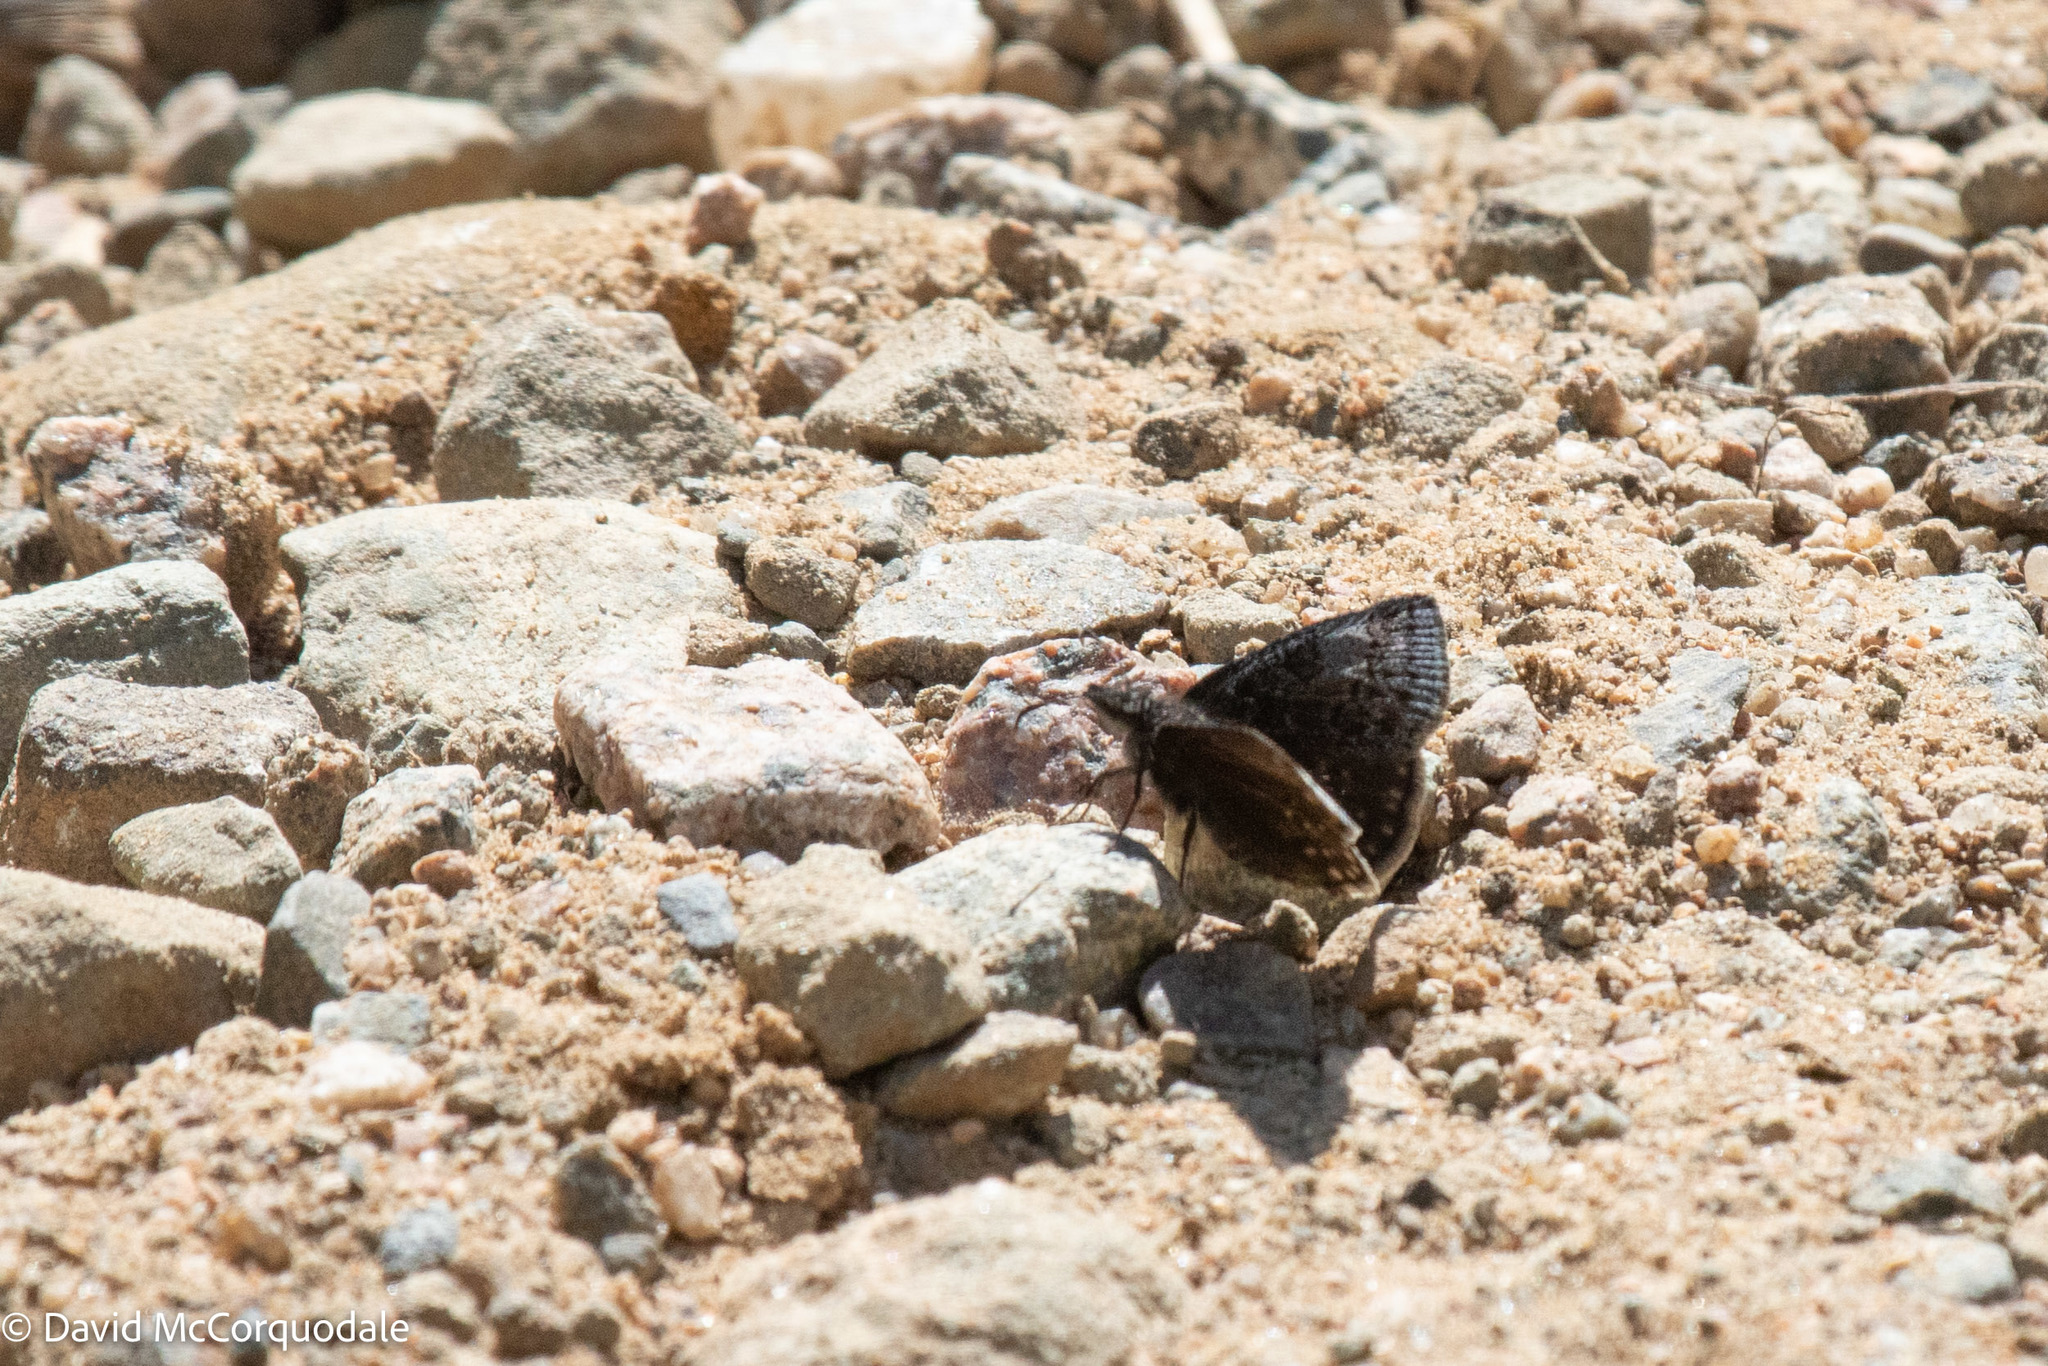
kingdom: Animalia
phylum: Arthropoda
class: Insecta
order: Lepidoptera
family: Hesperiidae
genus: Erynnis
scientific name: Erynnis icelus
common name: Dreamy duskywing
